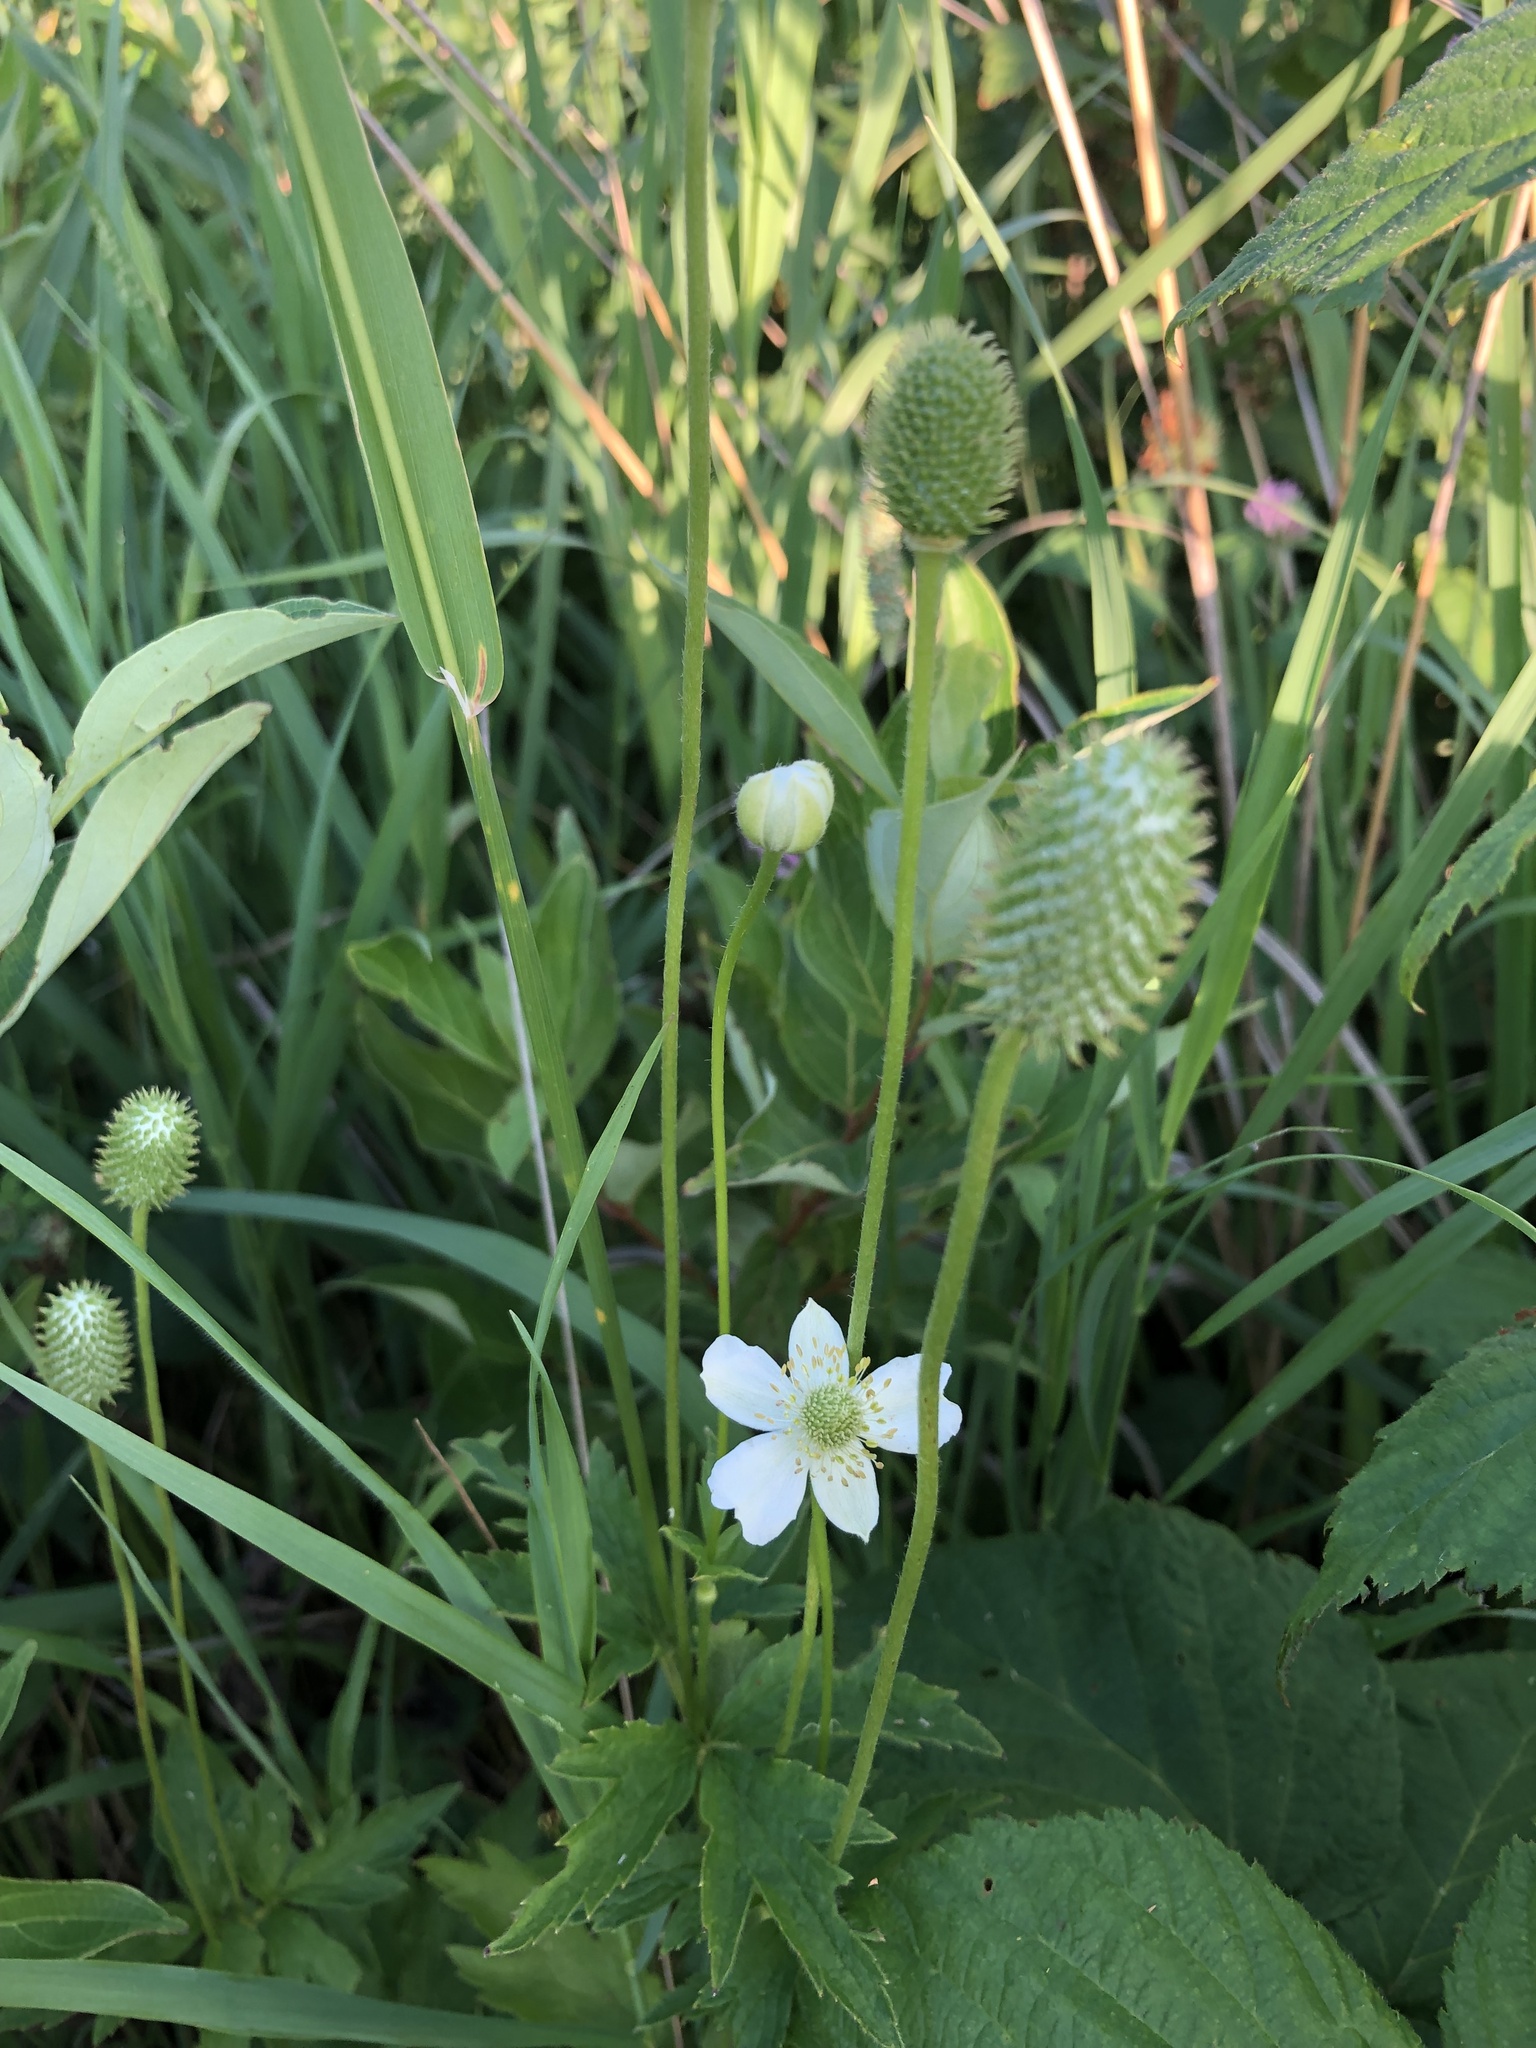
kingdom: Plantae
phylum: Tracheophyta
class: Magnoliopsida
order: Ranunculales
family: Ranunculaceae
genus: Anemone
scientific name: Anemone virginiana
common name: Tall anemone
